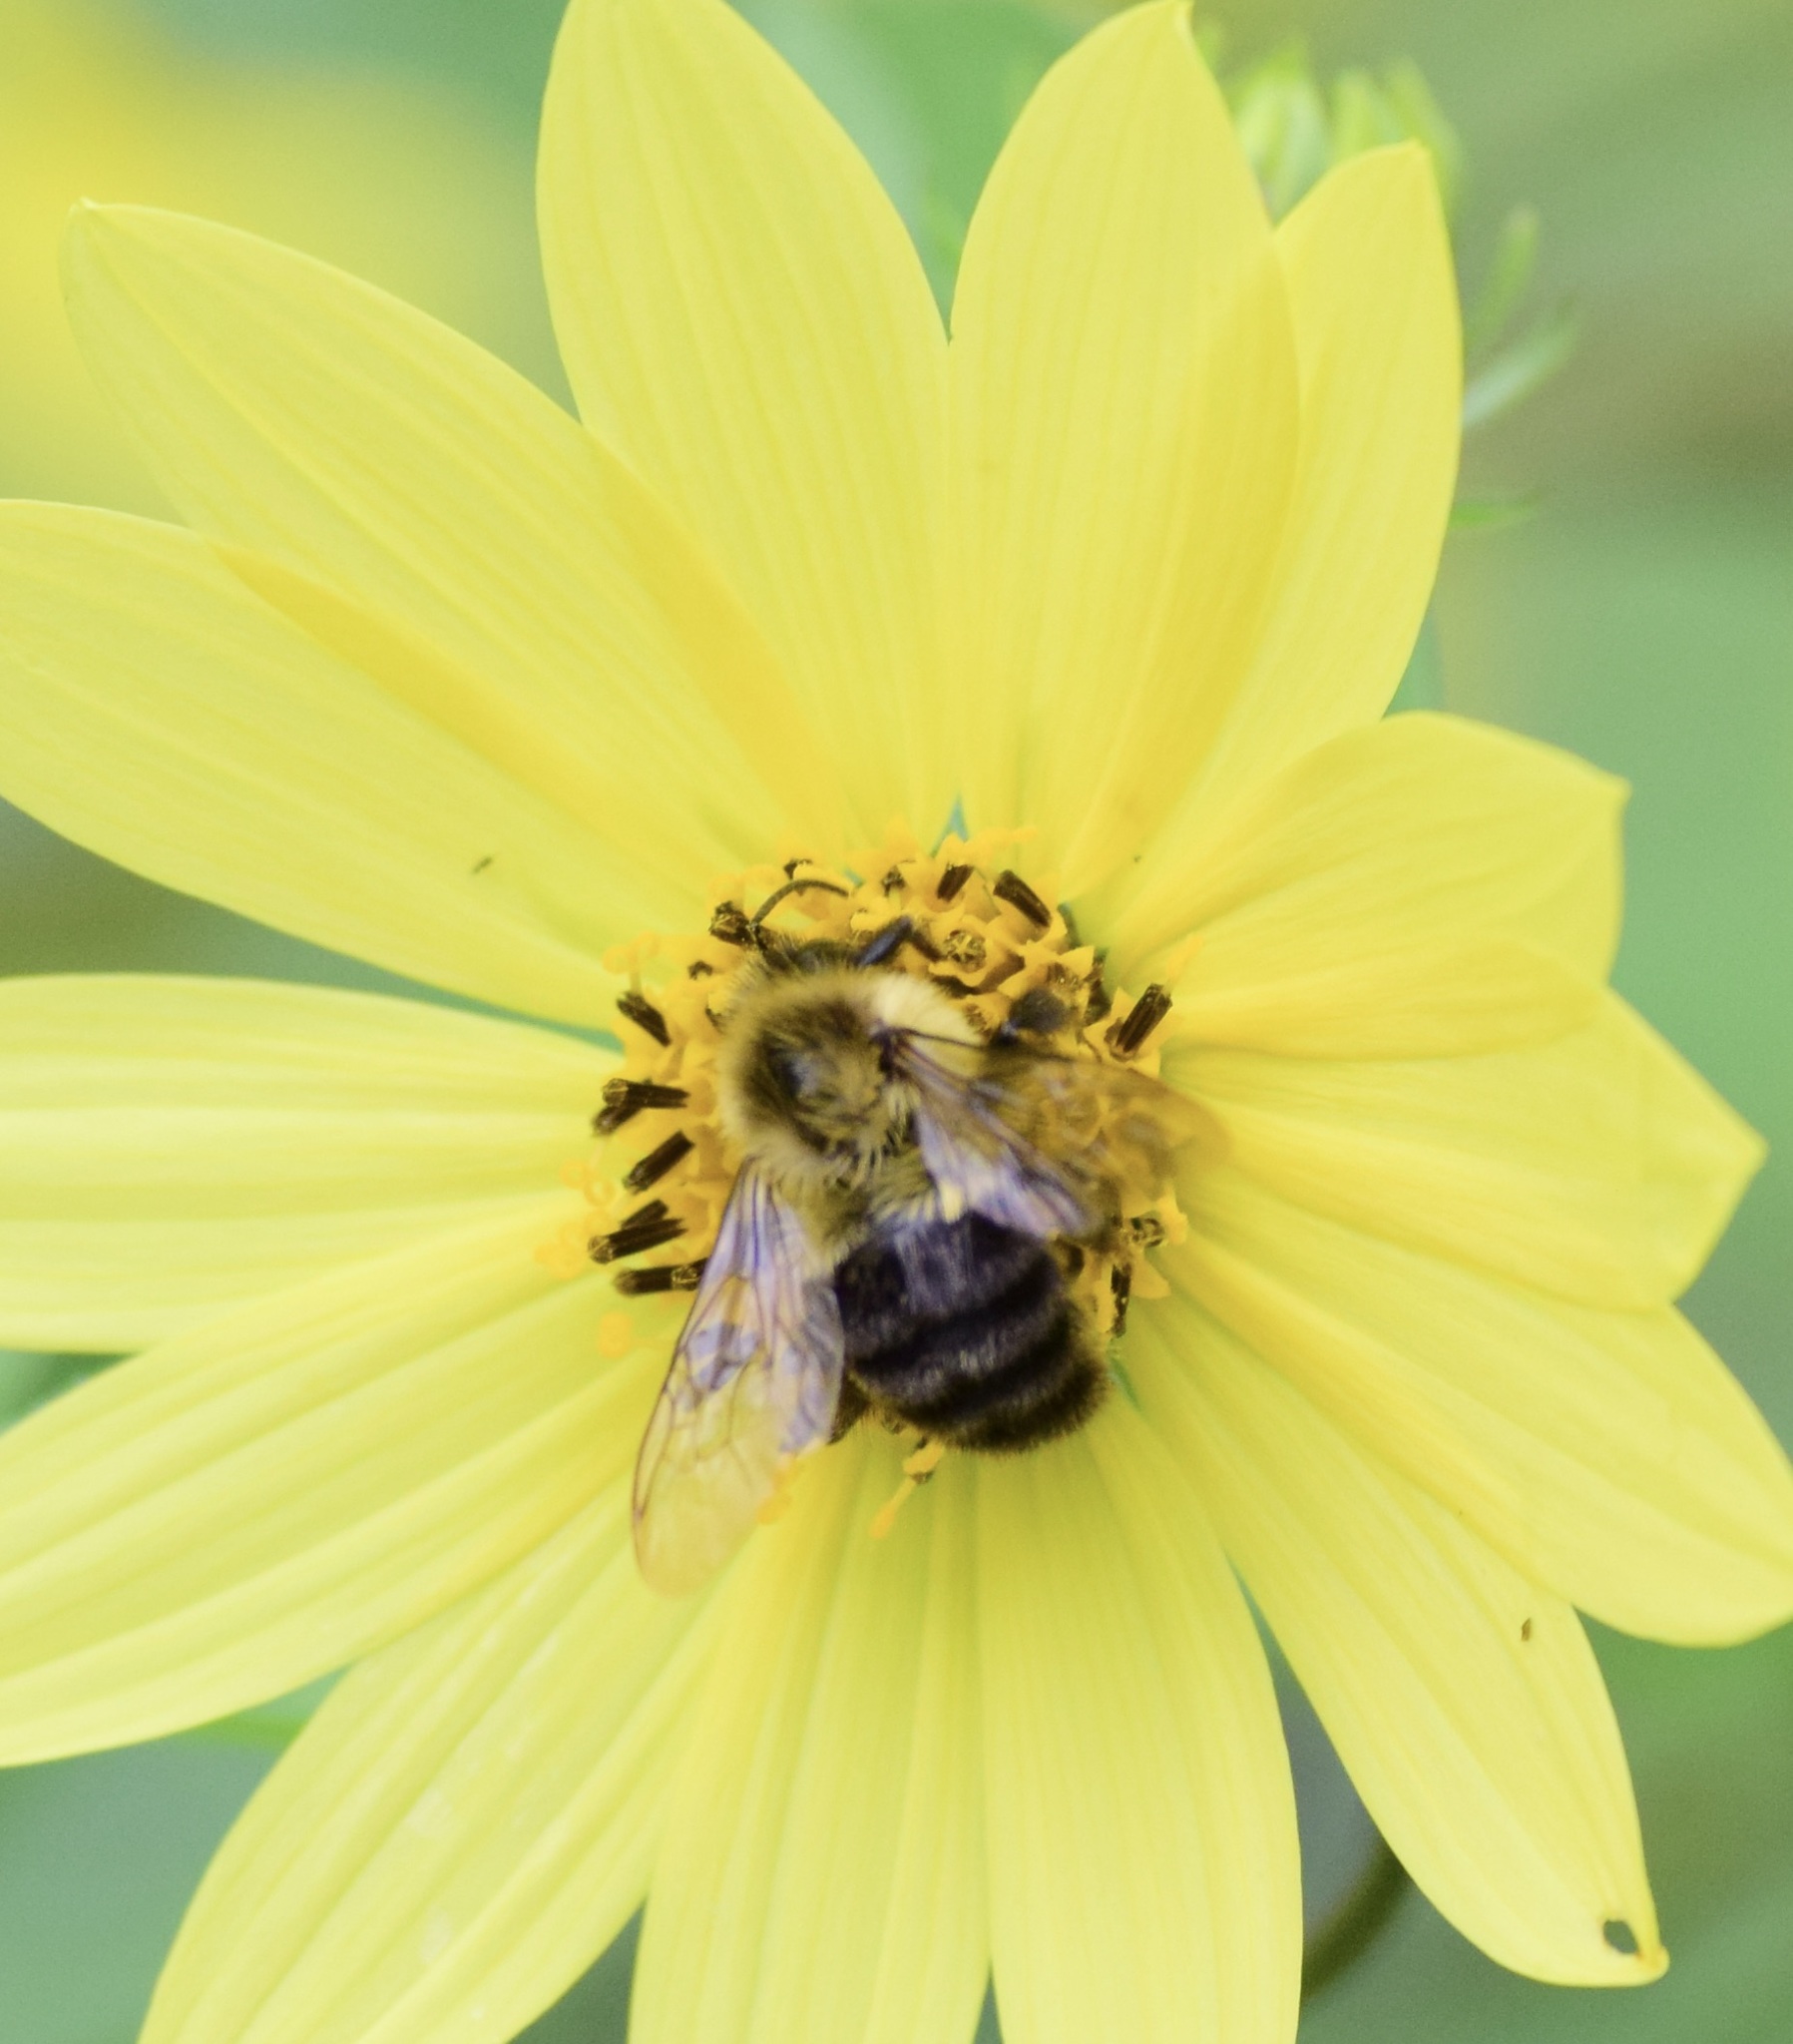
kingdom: Animalia
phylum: Arthropoda
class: Insecta
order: Hymenoptera
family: Apidae
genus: Bombus
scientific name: Bombus impatiens
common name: Common eastern bumble bee
